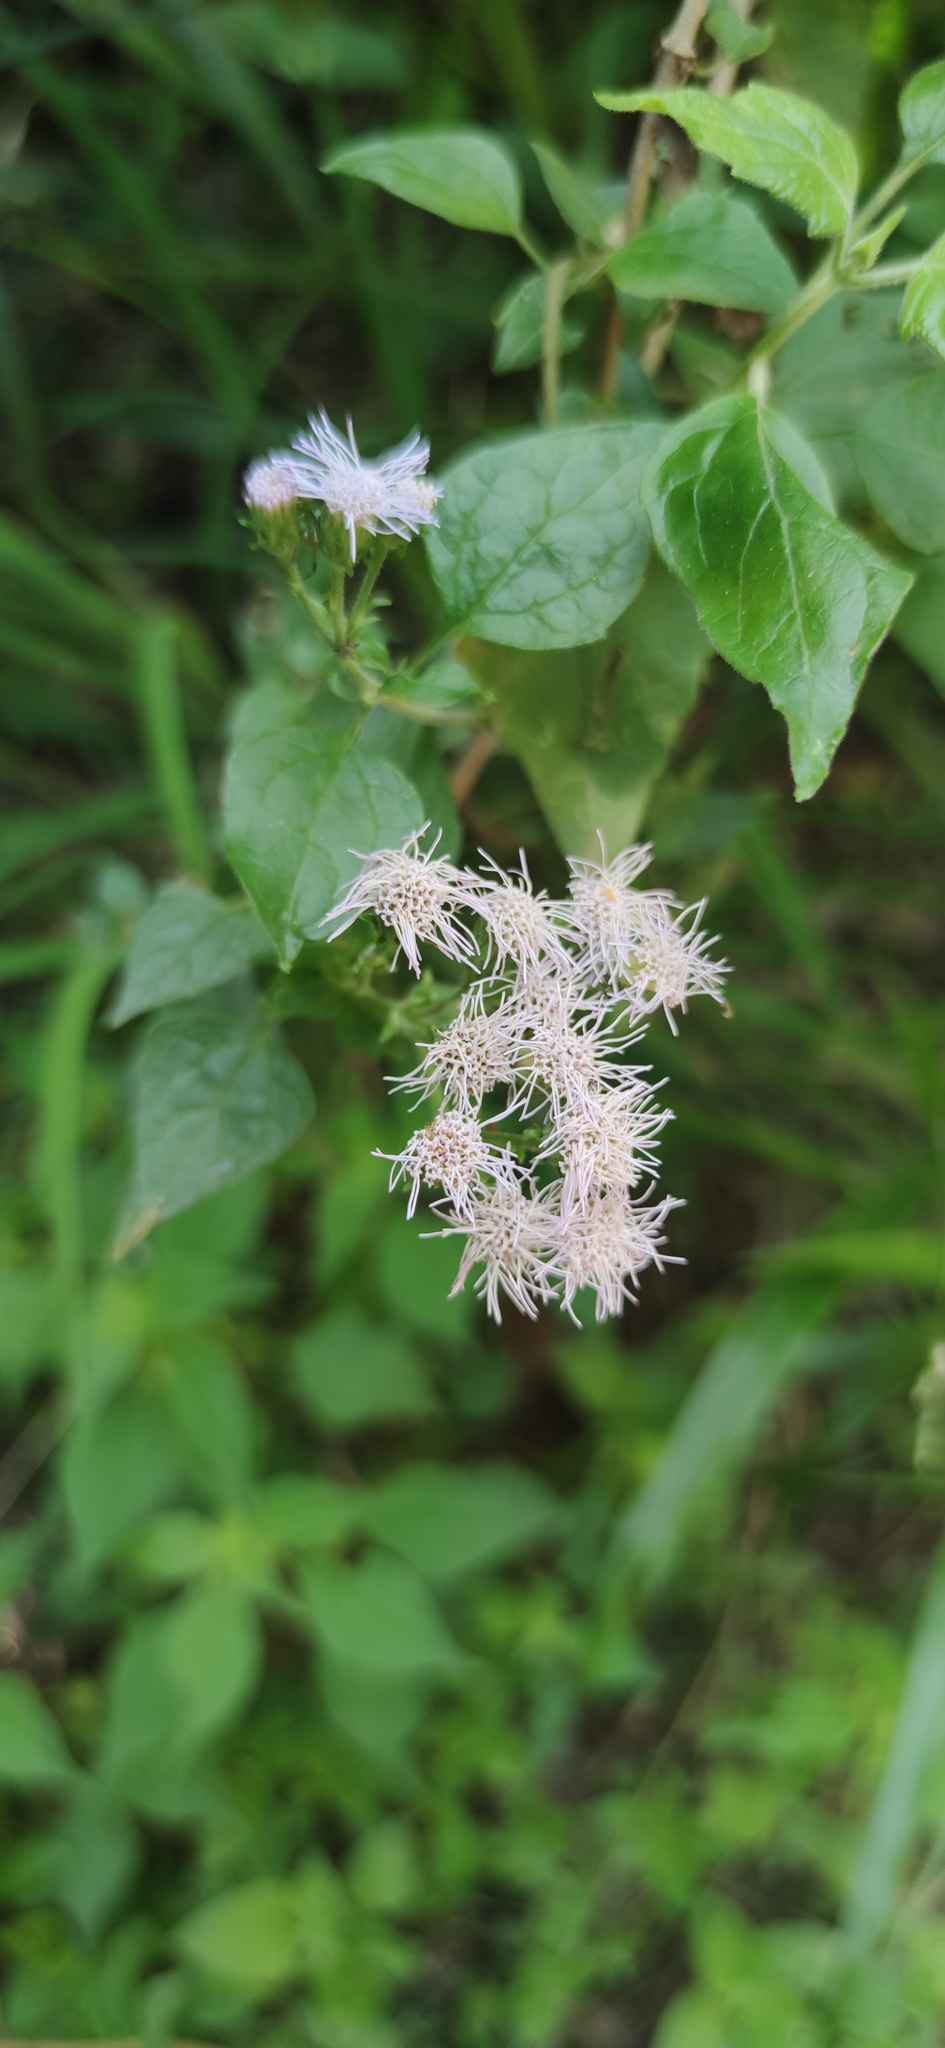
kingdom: Plantae
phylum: Tracheophyta
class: Magnoliopsida
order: Asterales
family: Asteraceae
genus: Tamaulipa
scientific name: Tamaulipa azurea
